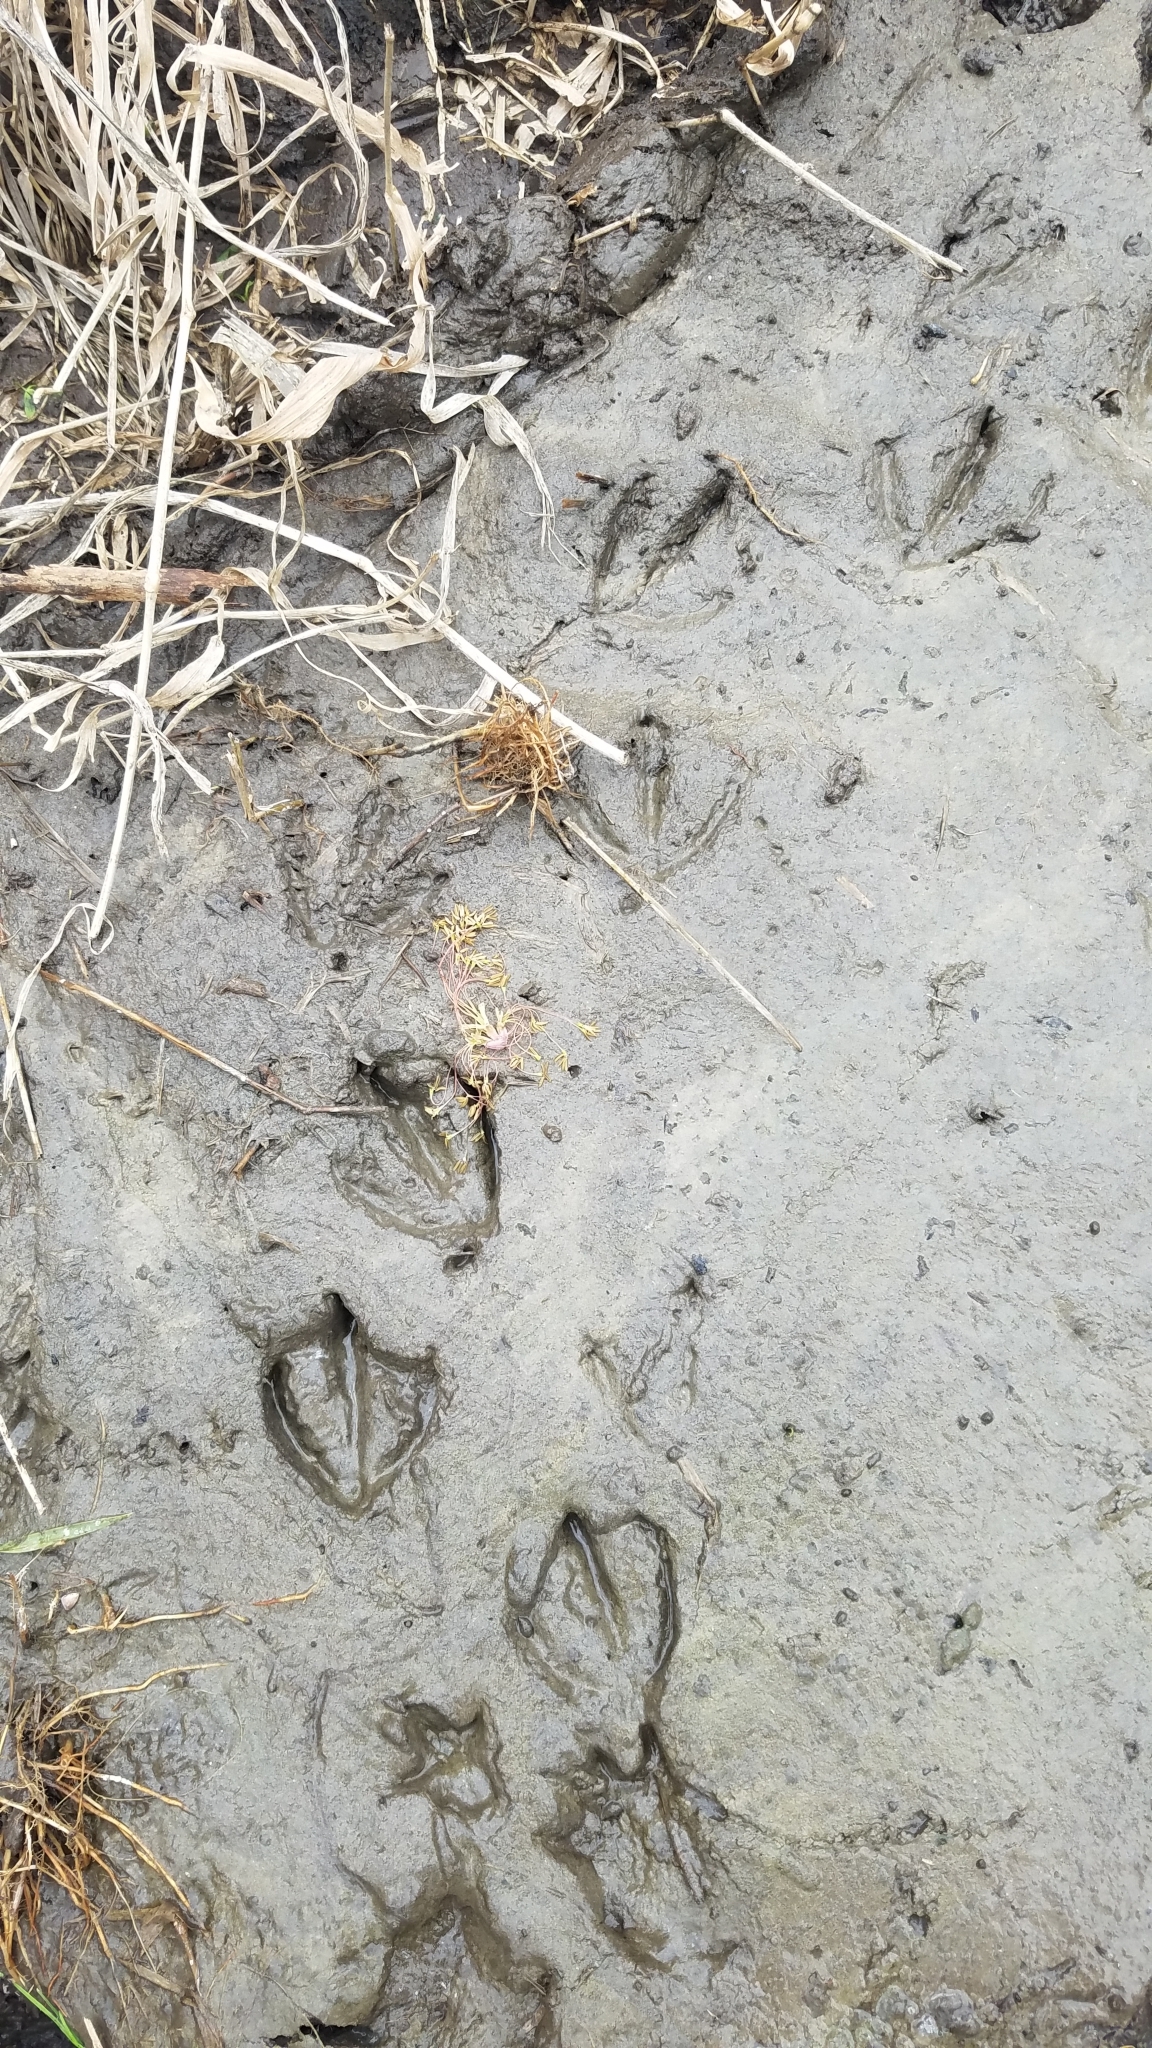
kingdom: Animalia
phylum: Chordata
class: Aves
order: Anseriformes
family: Anatidae
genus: Aix
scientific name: Aix sponsa
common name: Wood duck
